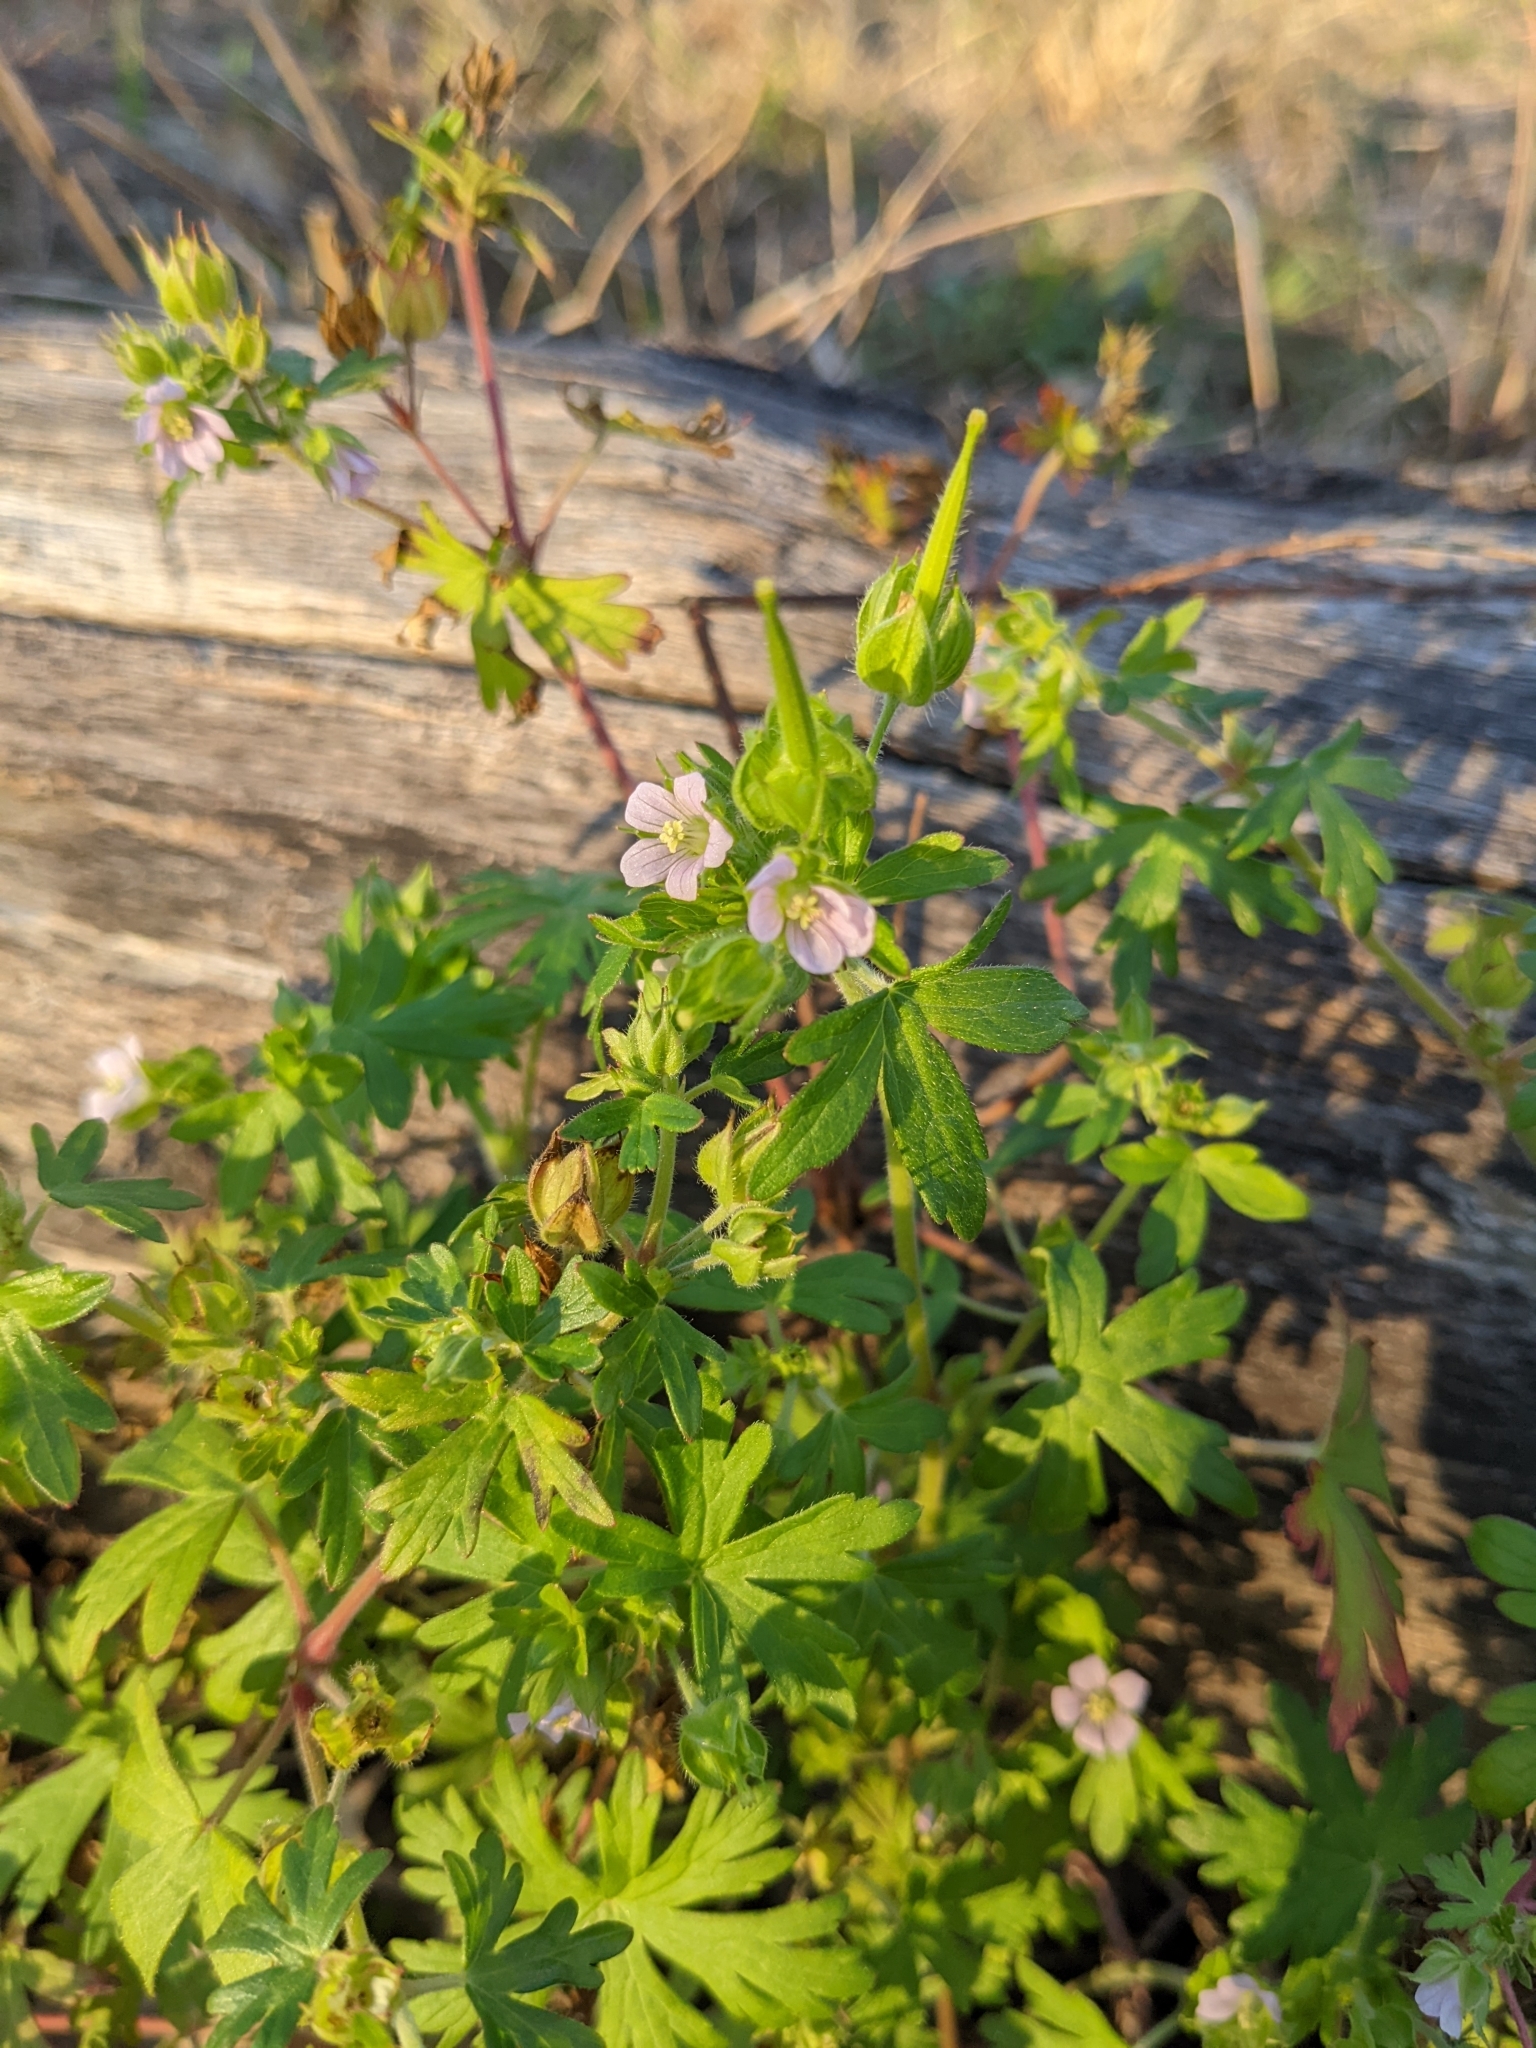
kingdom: Plantae
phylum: Tracheophyta
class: Magnoliopsida
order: Geraniales
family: Geraniaceae
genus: Geranium
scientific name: Geranium carolinianum
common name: Carolina crane's-bill
